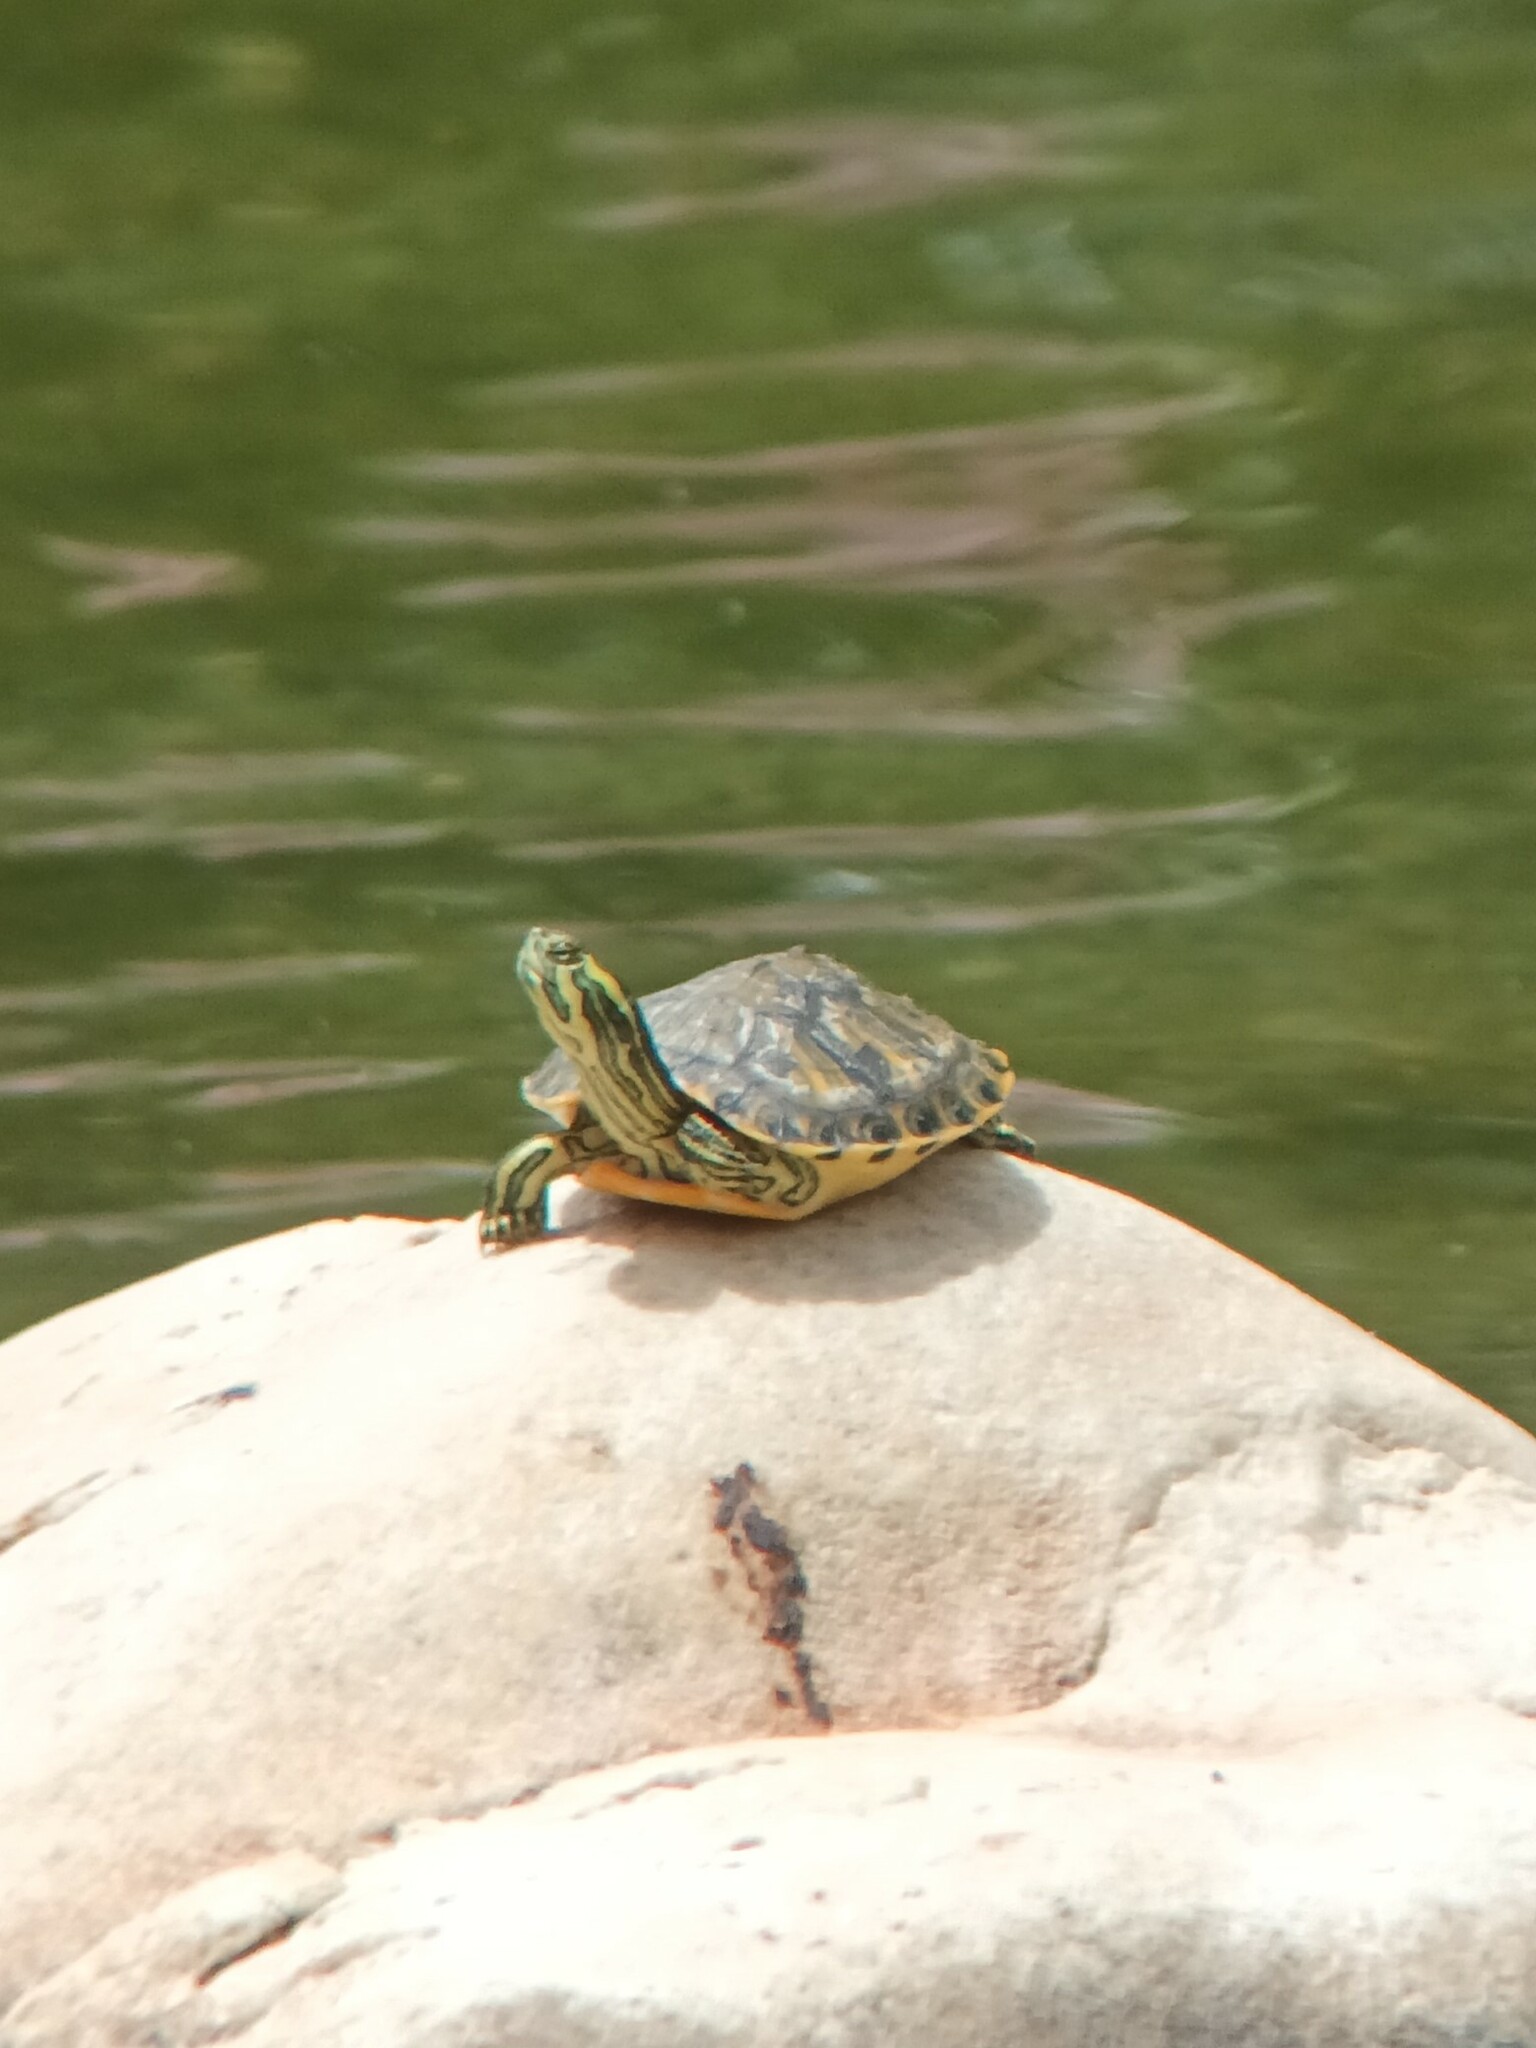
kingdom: Animalia
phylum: Chordata
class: Testudines
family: Emydidae
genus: Trachemys
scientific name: Trachemys scripta
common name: Slider
